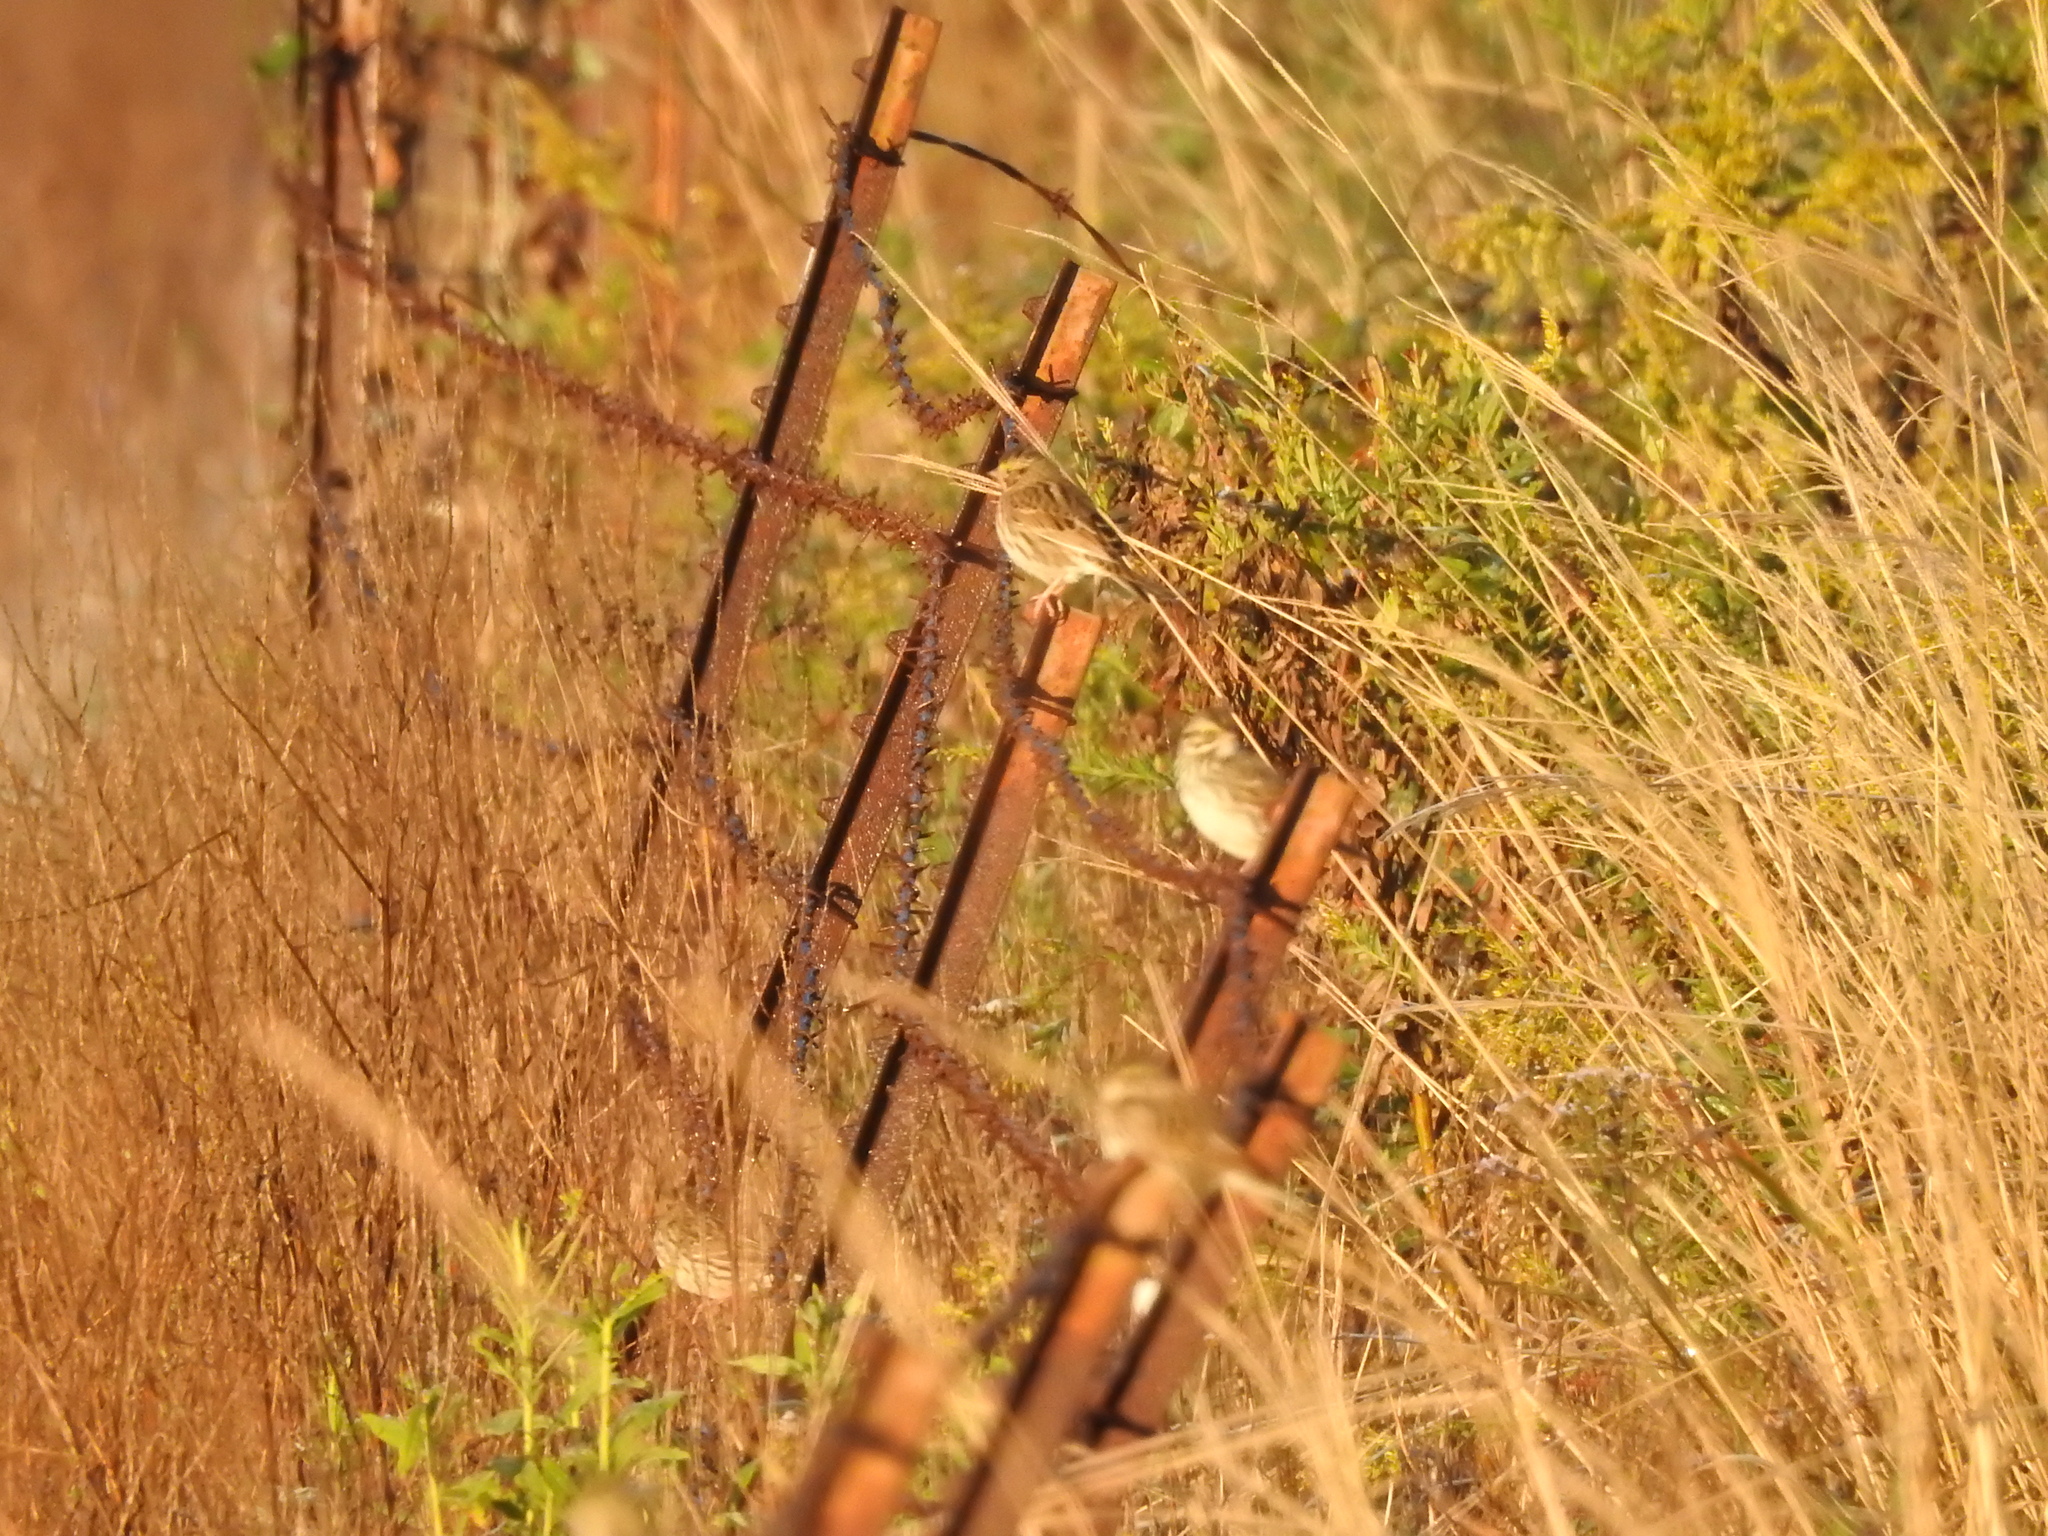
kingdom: Animalia
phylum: Chordata
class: Aves
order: Passeriformes
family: Passerellidae
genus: Passerculus
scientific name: Passerculus sandwichensis
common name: Savannah sparrow
